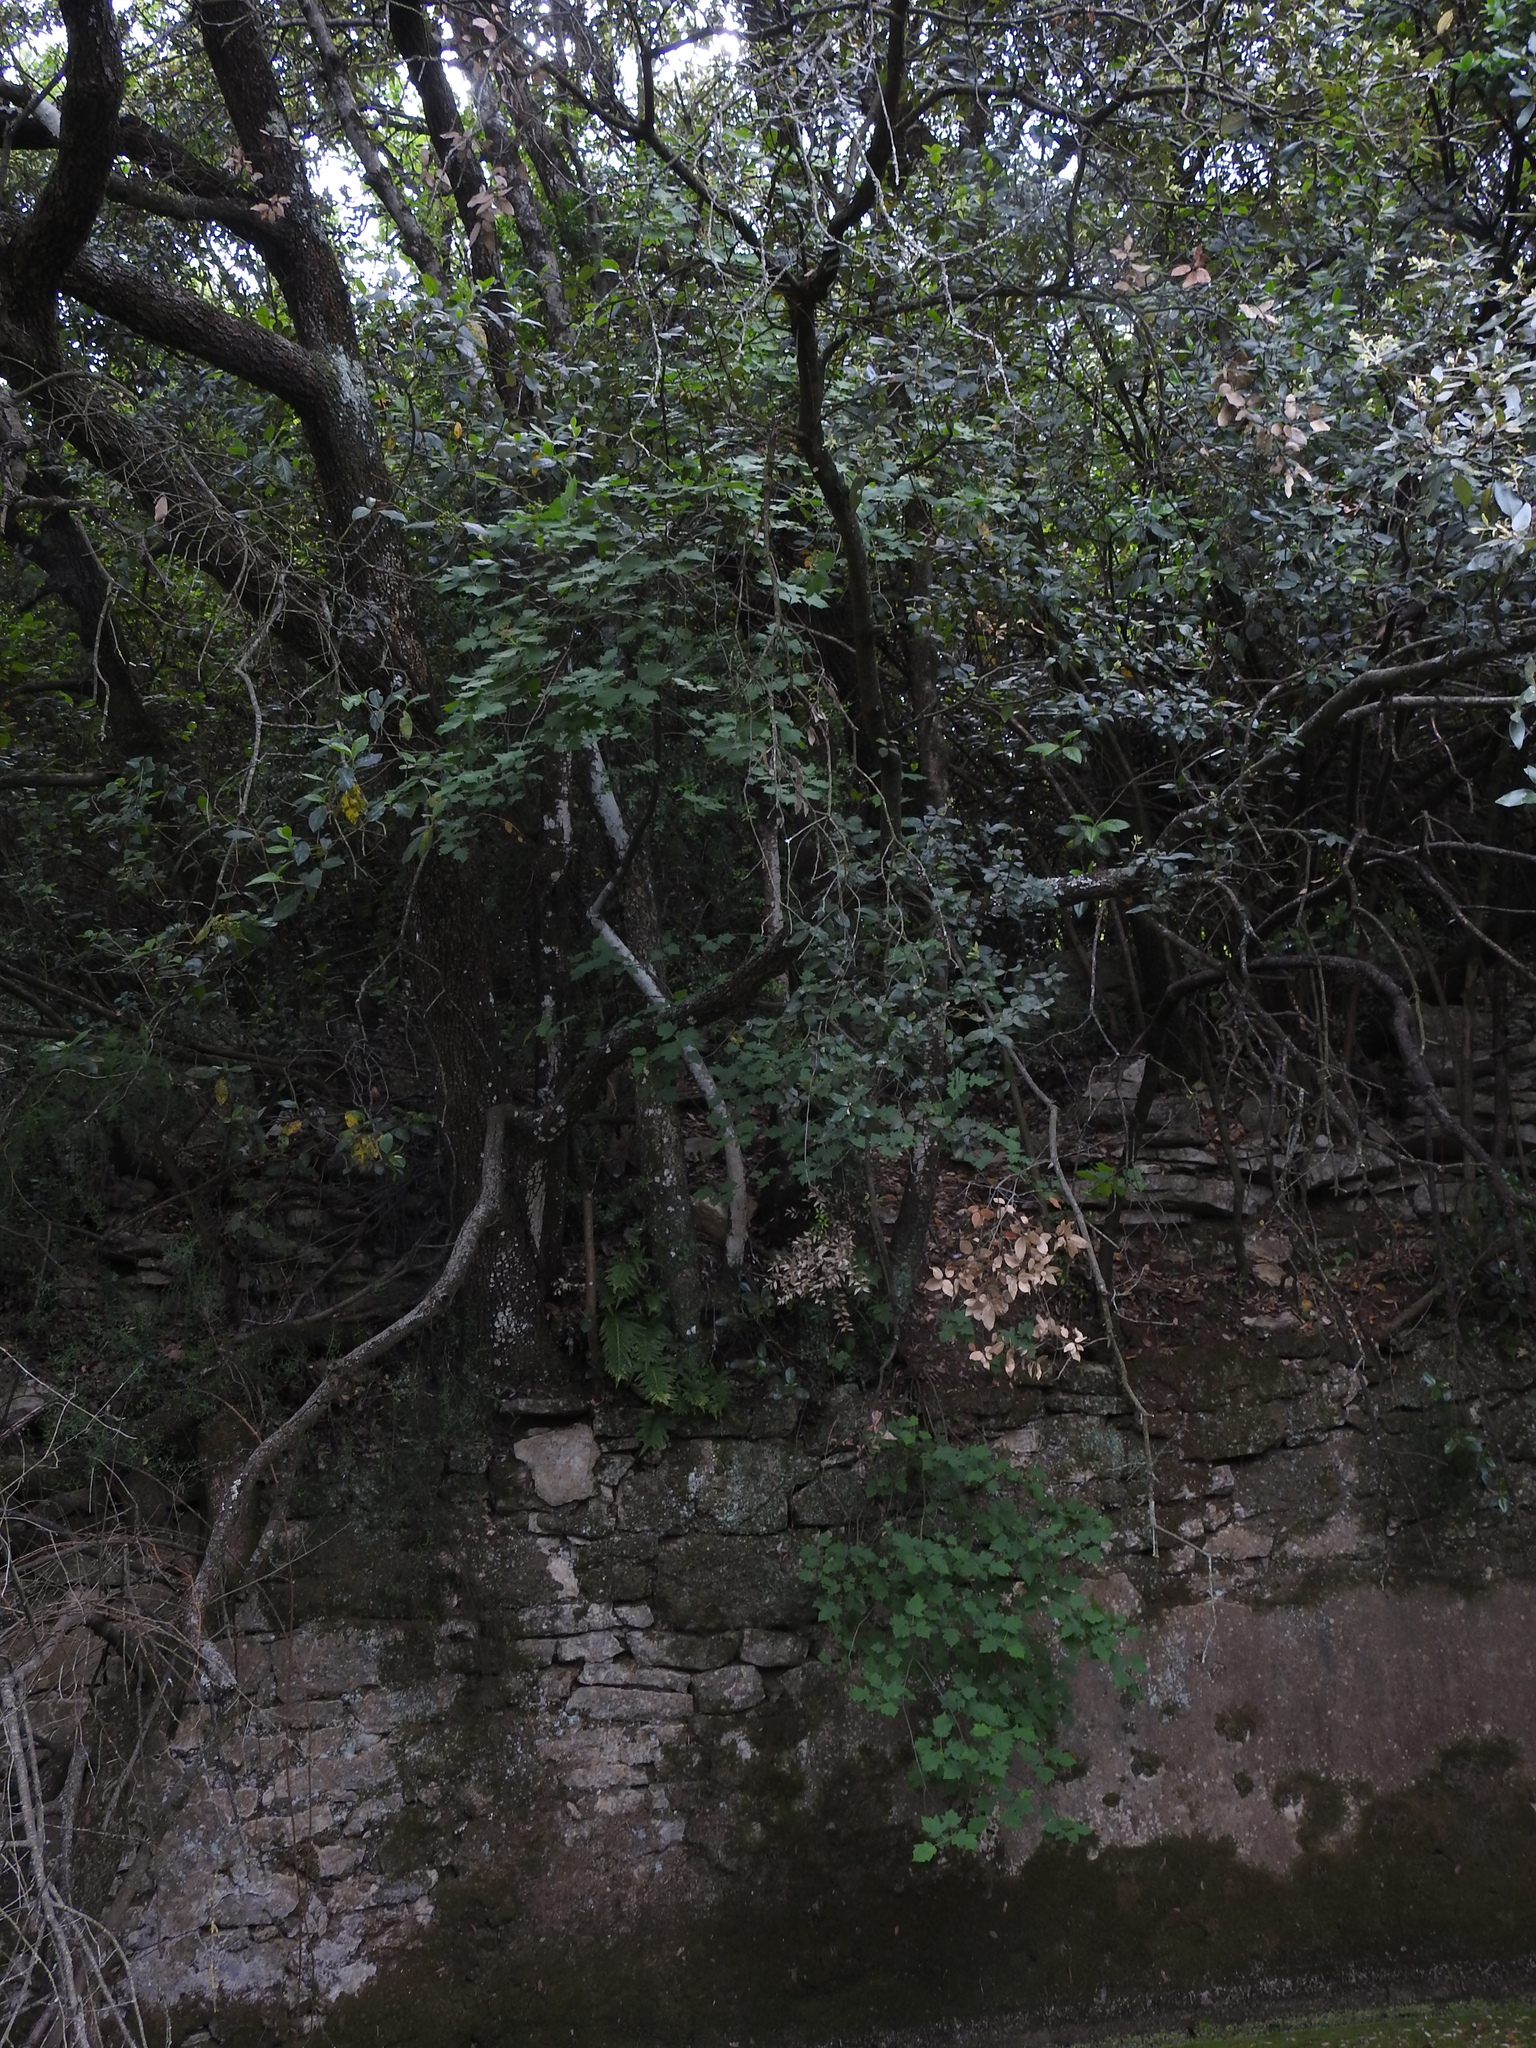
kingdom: Plantae
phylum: Tracheophyta
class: Magnoliopsida
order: Rosales
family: Rosaceae
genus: Torminalis
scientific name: Torminalis glaberrima
